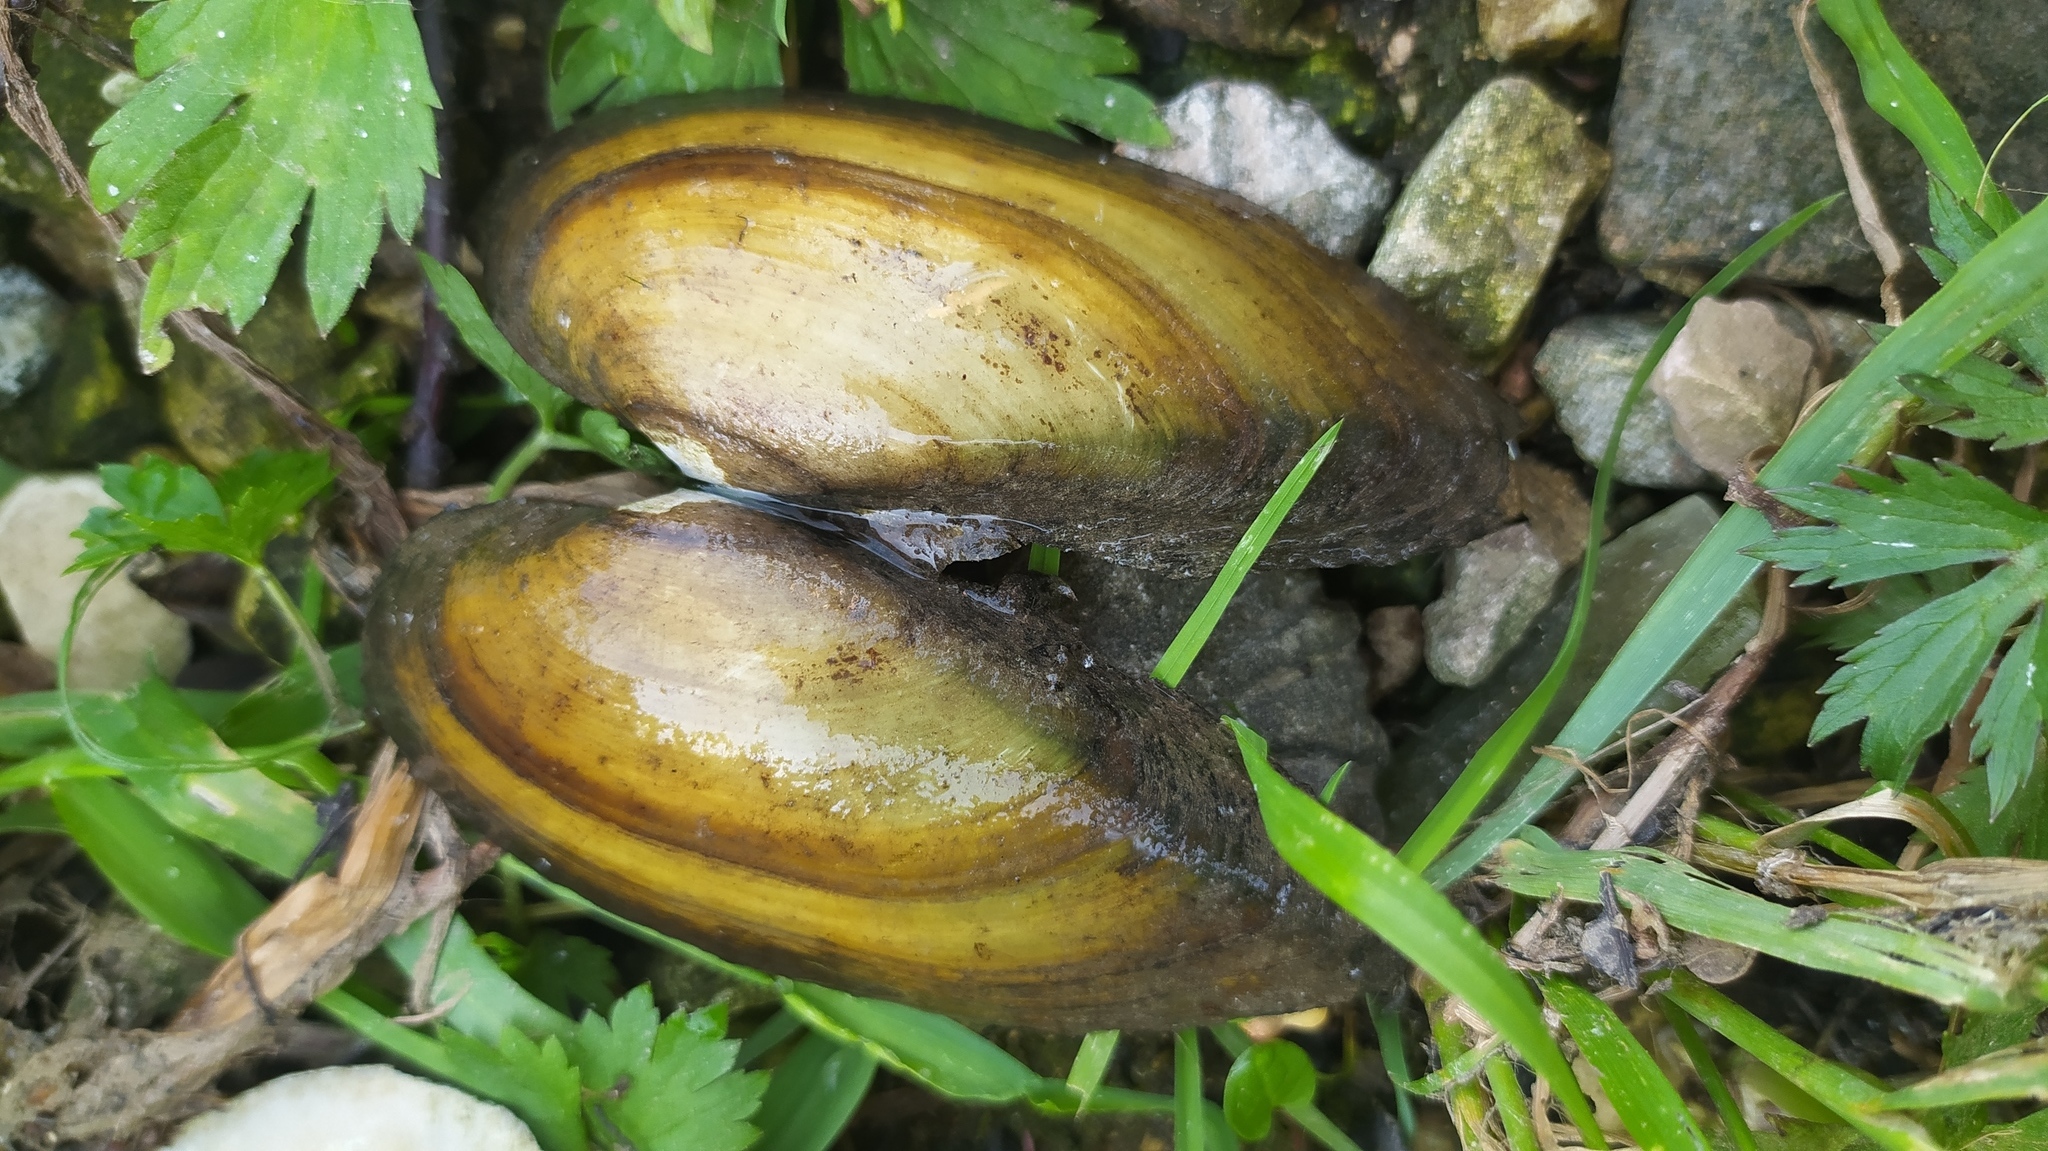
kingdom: Animalia
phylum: Mollusca
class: Bivalvia
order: Unionida
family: Unionidae
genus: Unio
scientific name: Unio pictorum
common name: Painter's mussel
